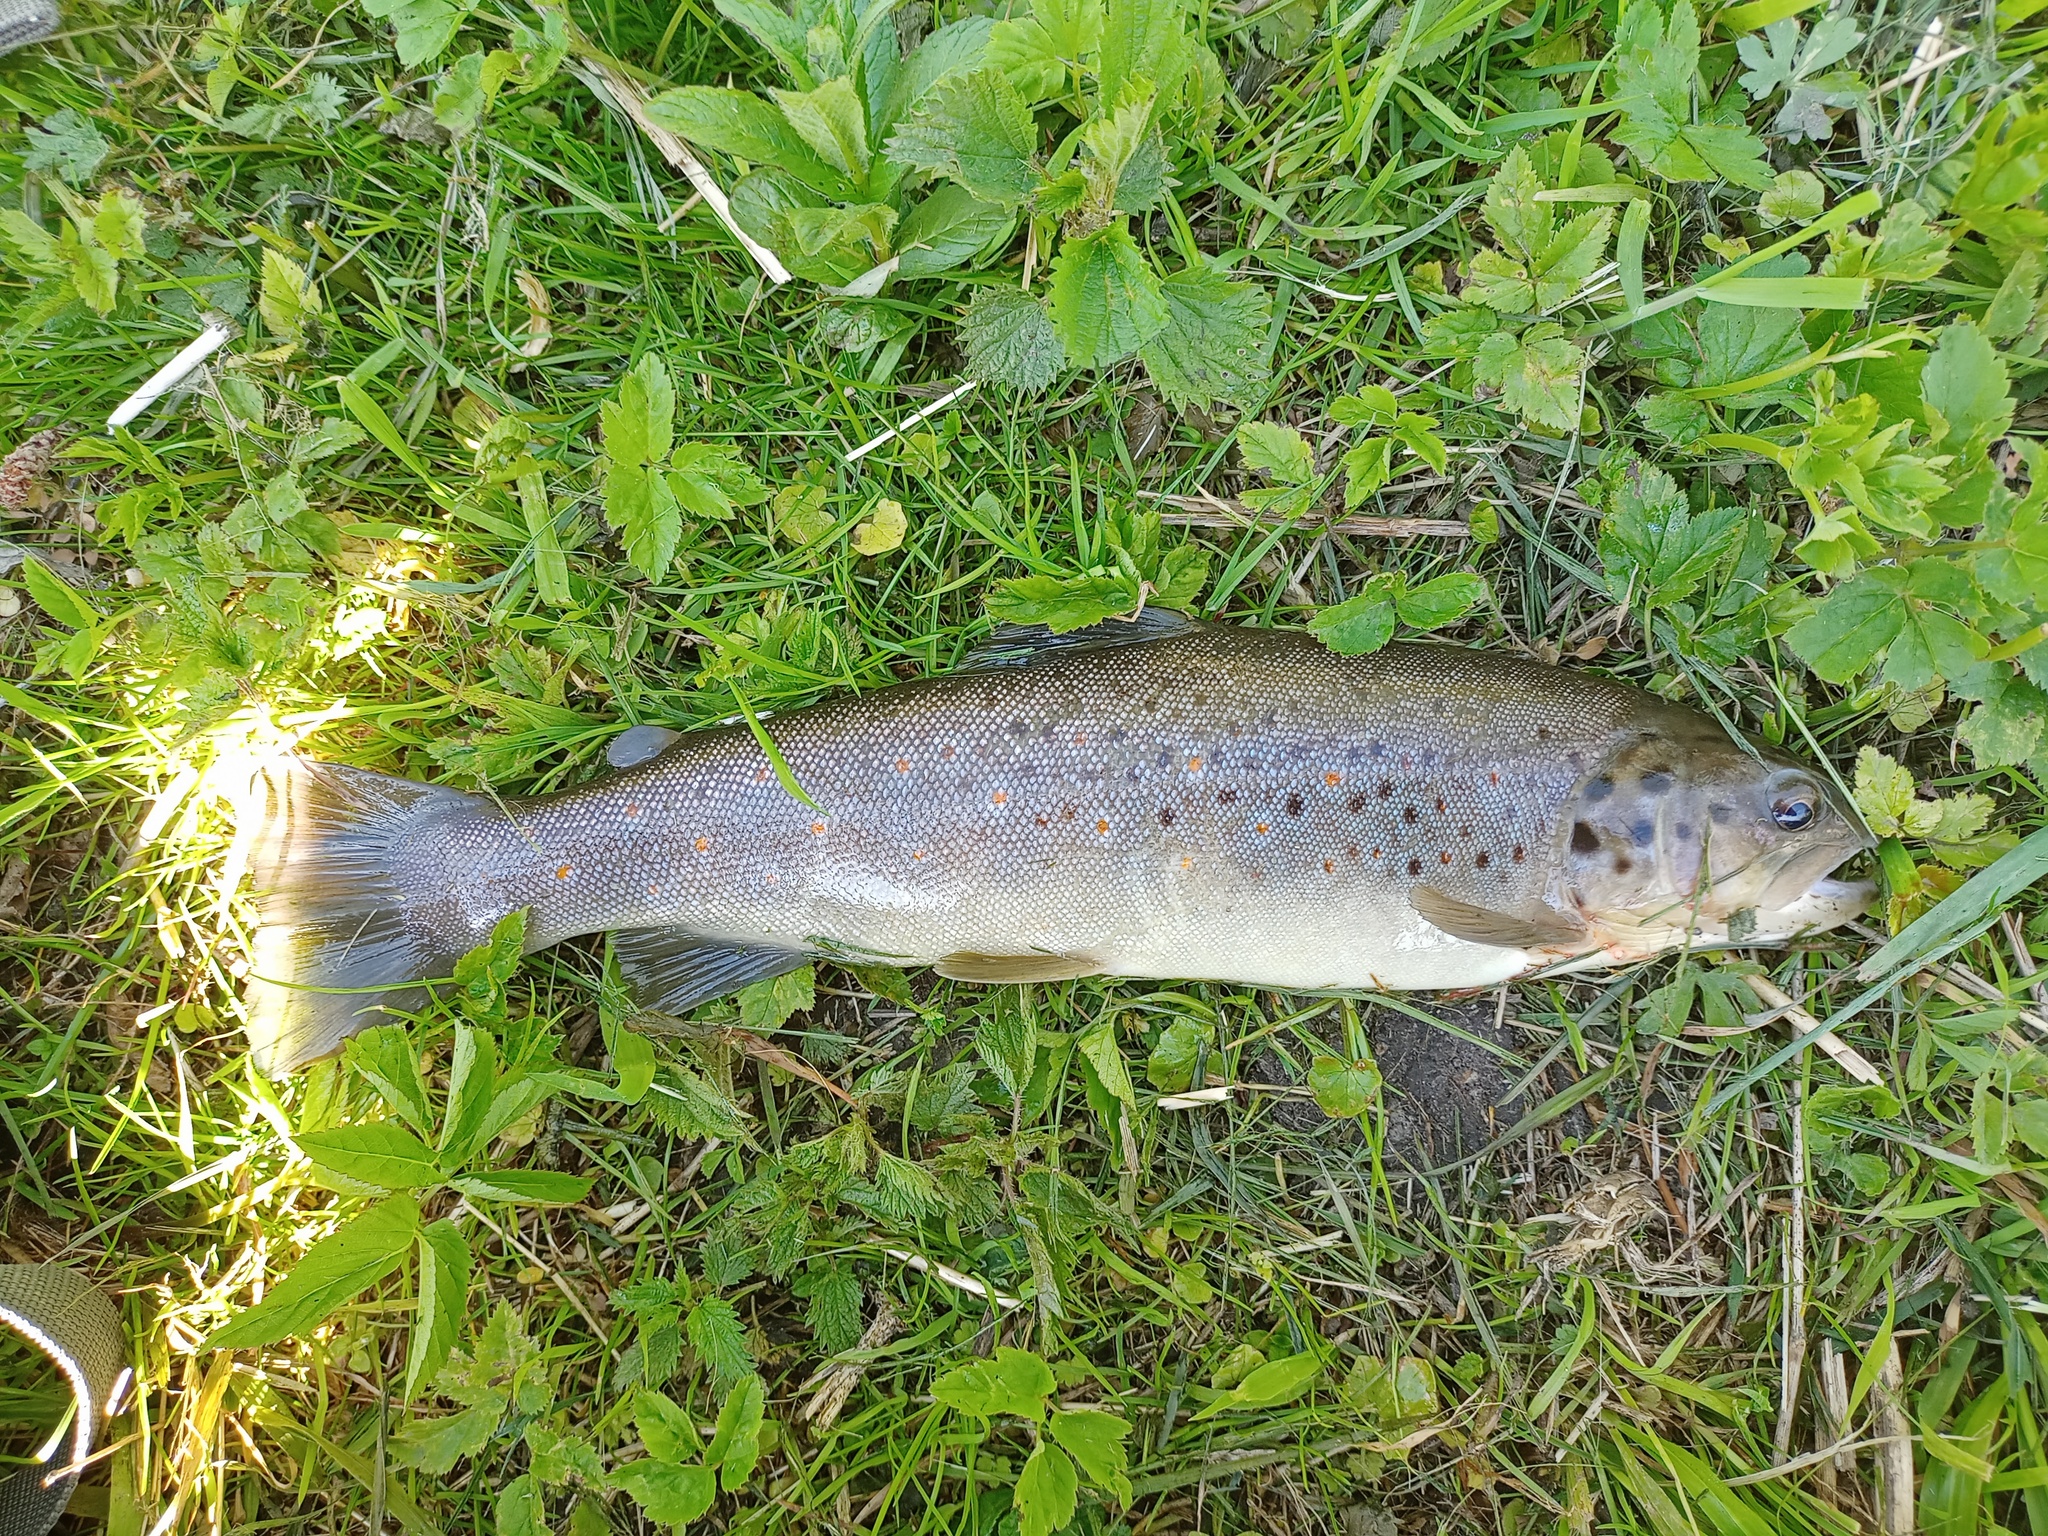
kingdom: Animalia
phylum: Chordata
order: Salmoniformes
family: Salmonidae
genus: Salmo
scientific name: Salmo trutta
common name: Brown trout
